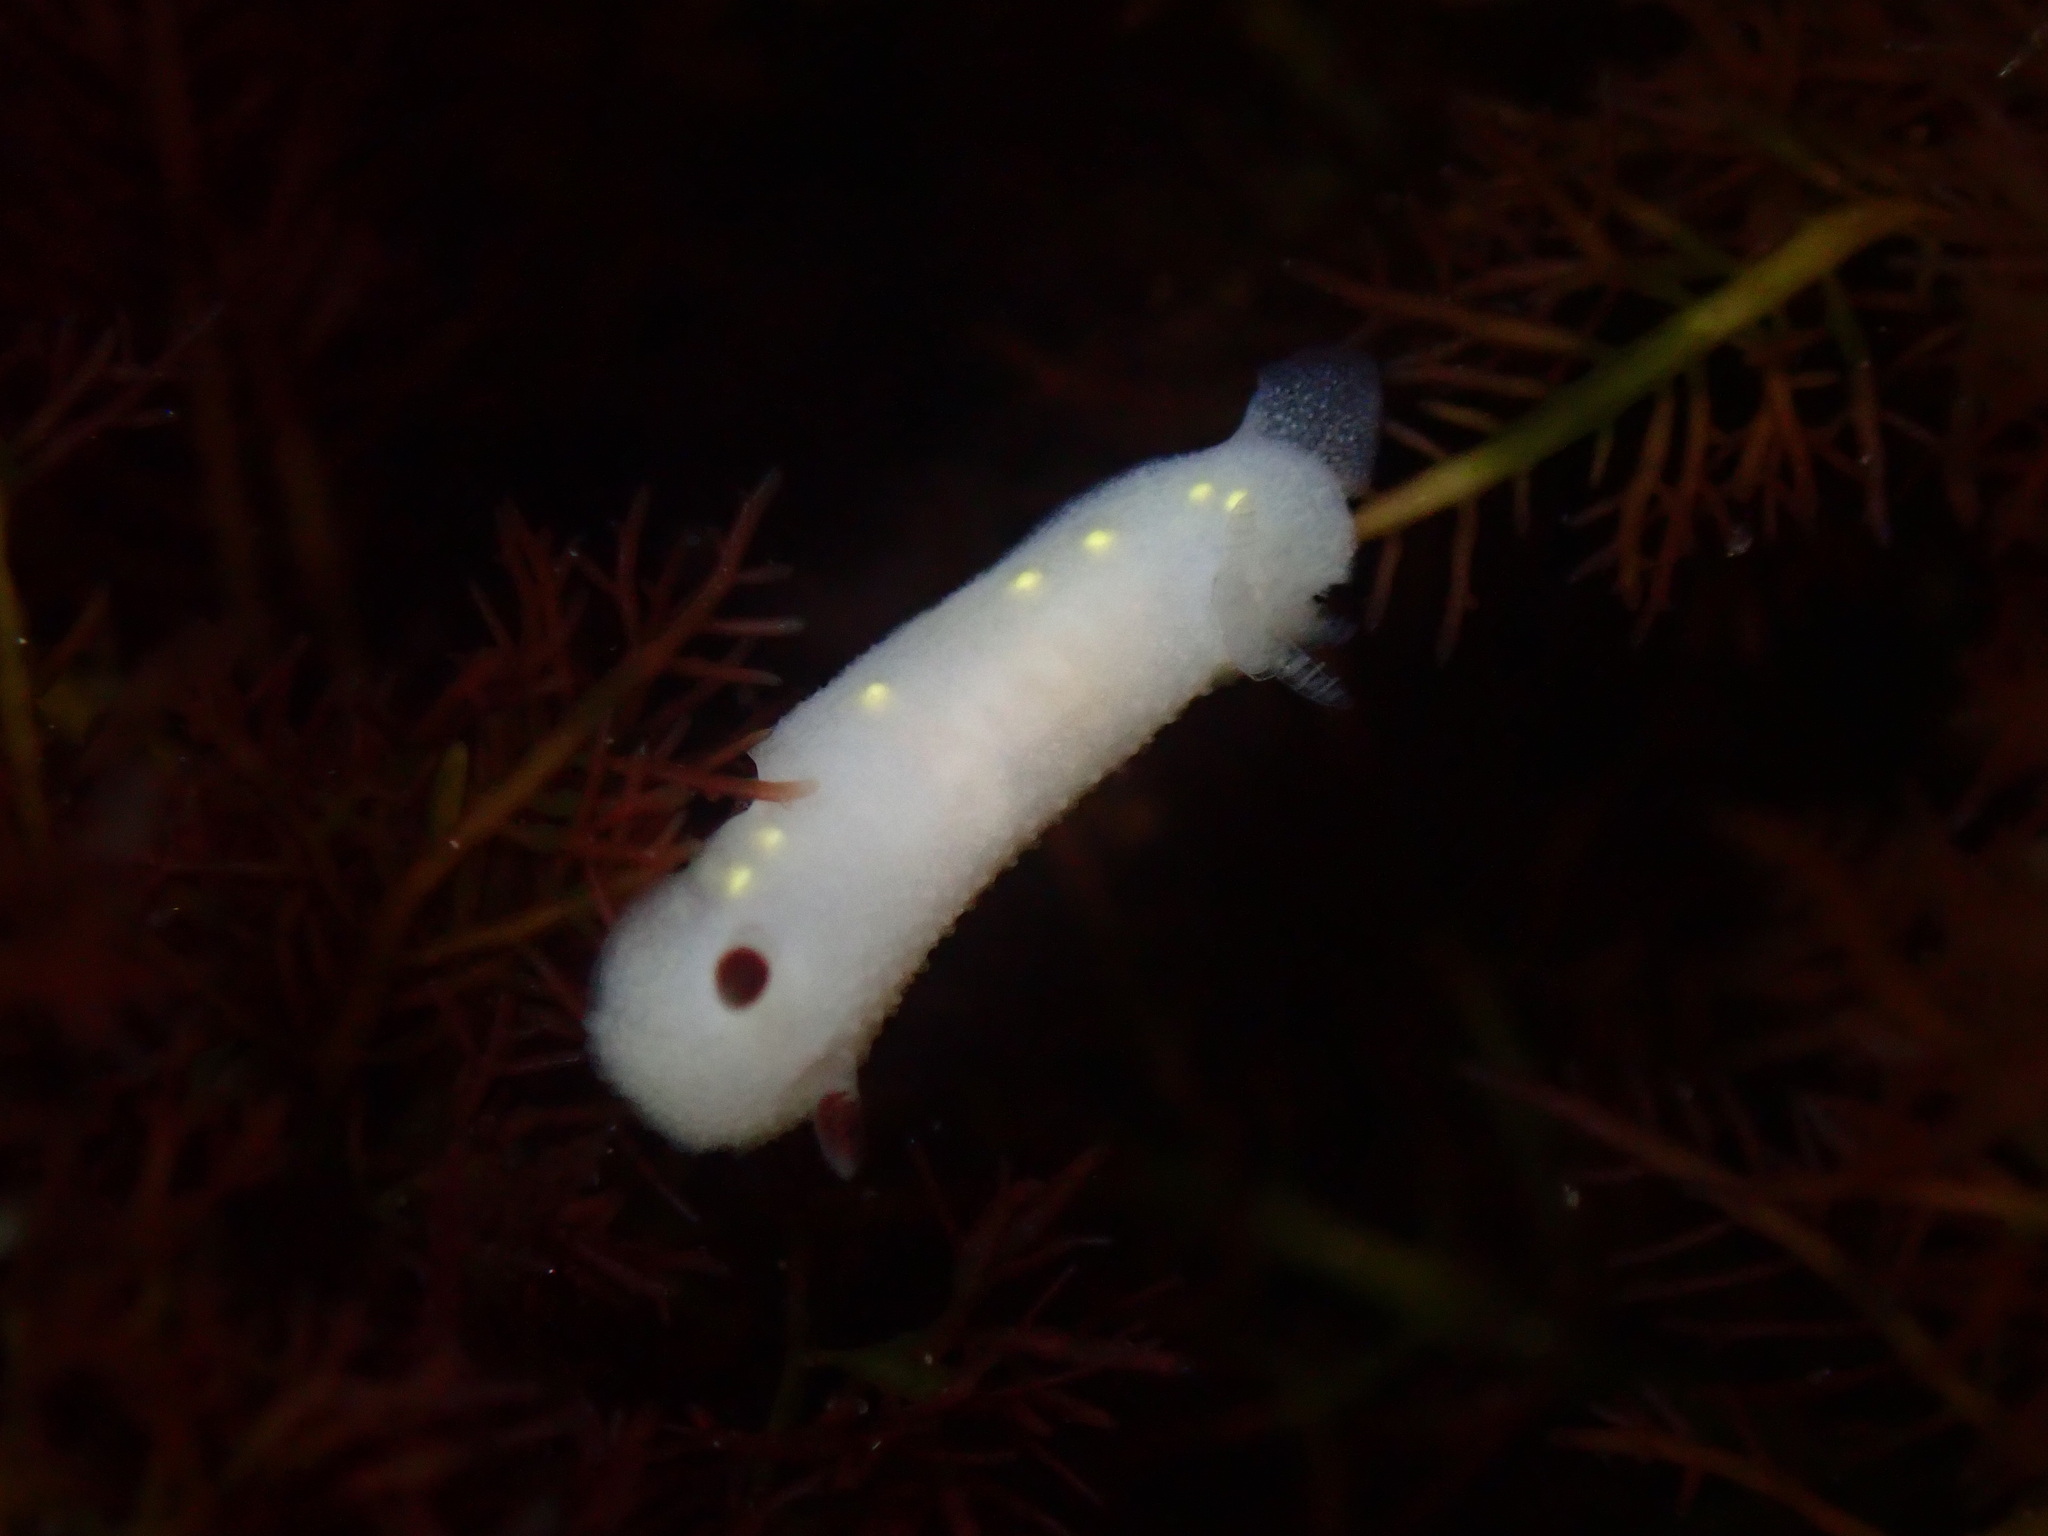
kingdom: Animalia
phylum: Mollusca
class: Gastropoda
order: Nudibranchia
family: Cadlinidae
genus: Cadlina
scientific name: Cadlina flavomaculata
